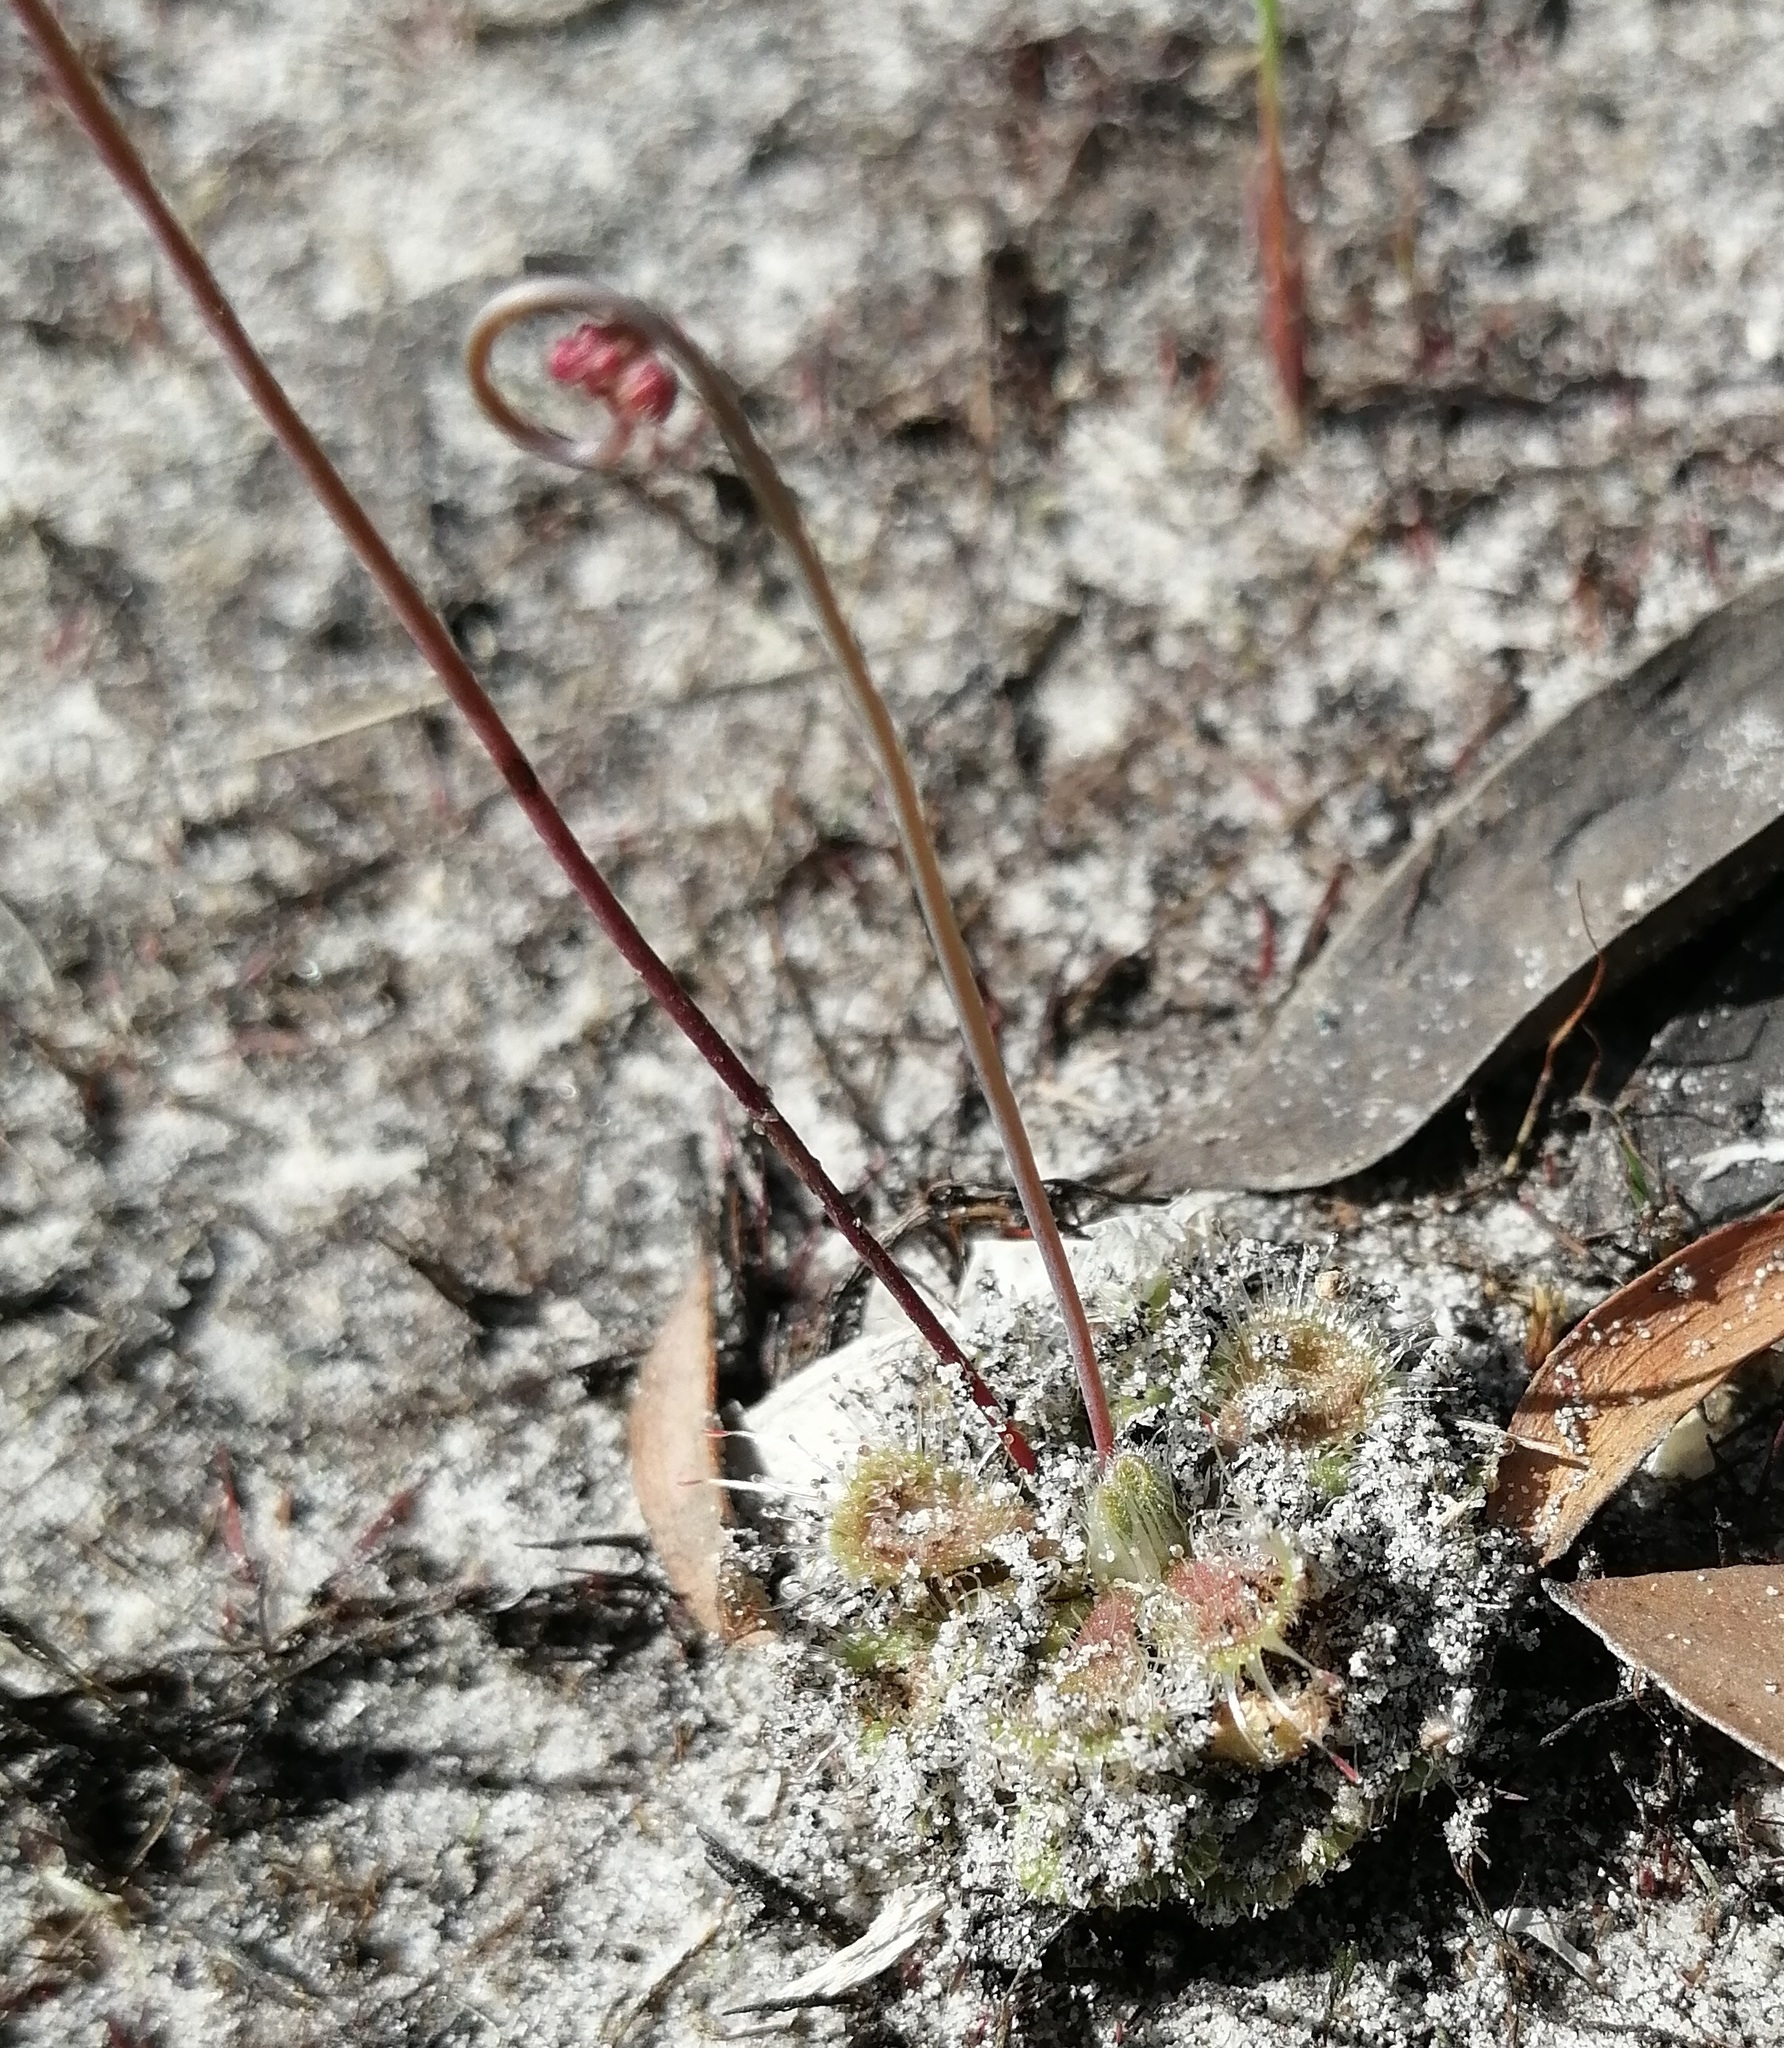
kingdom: Plantae
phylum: Tracheophyta
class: Magnoliopsida
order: Caryophyllales
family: Droseraceae
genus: Drosera
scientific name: Drosera spatulata
